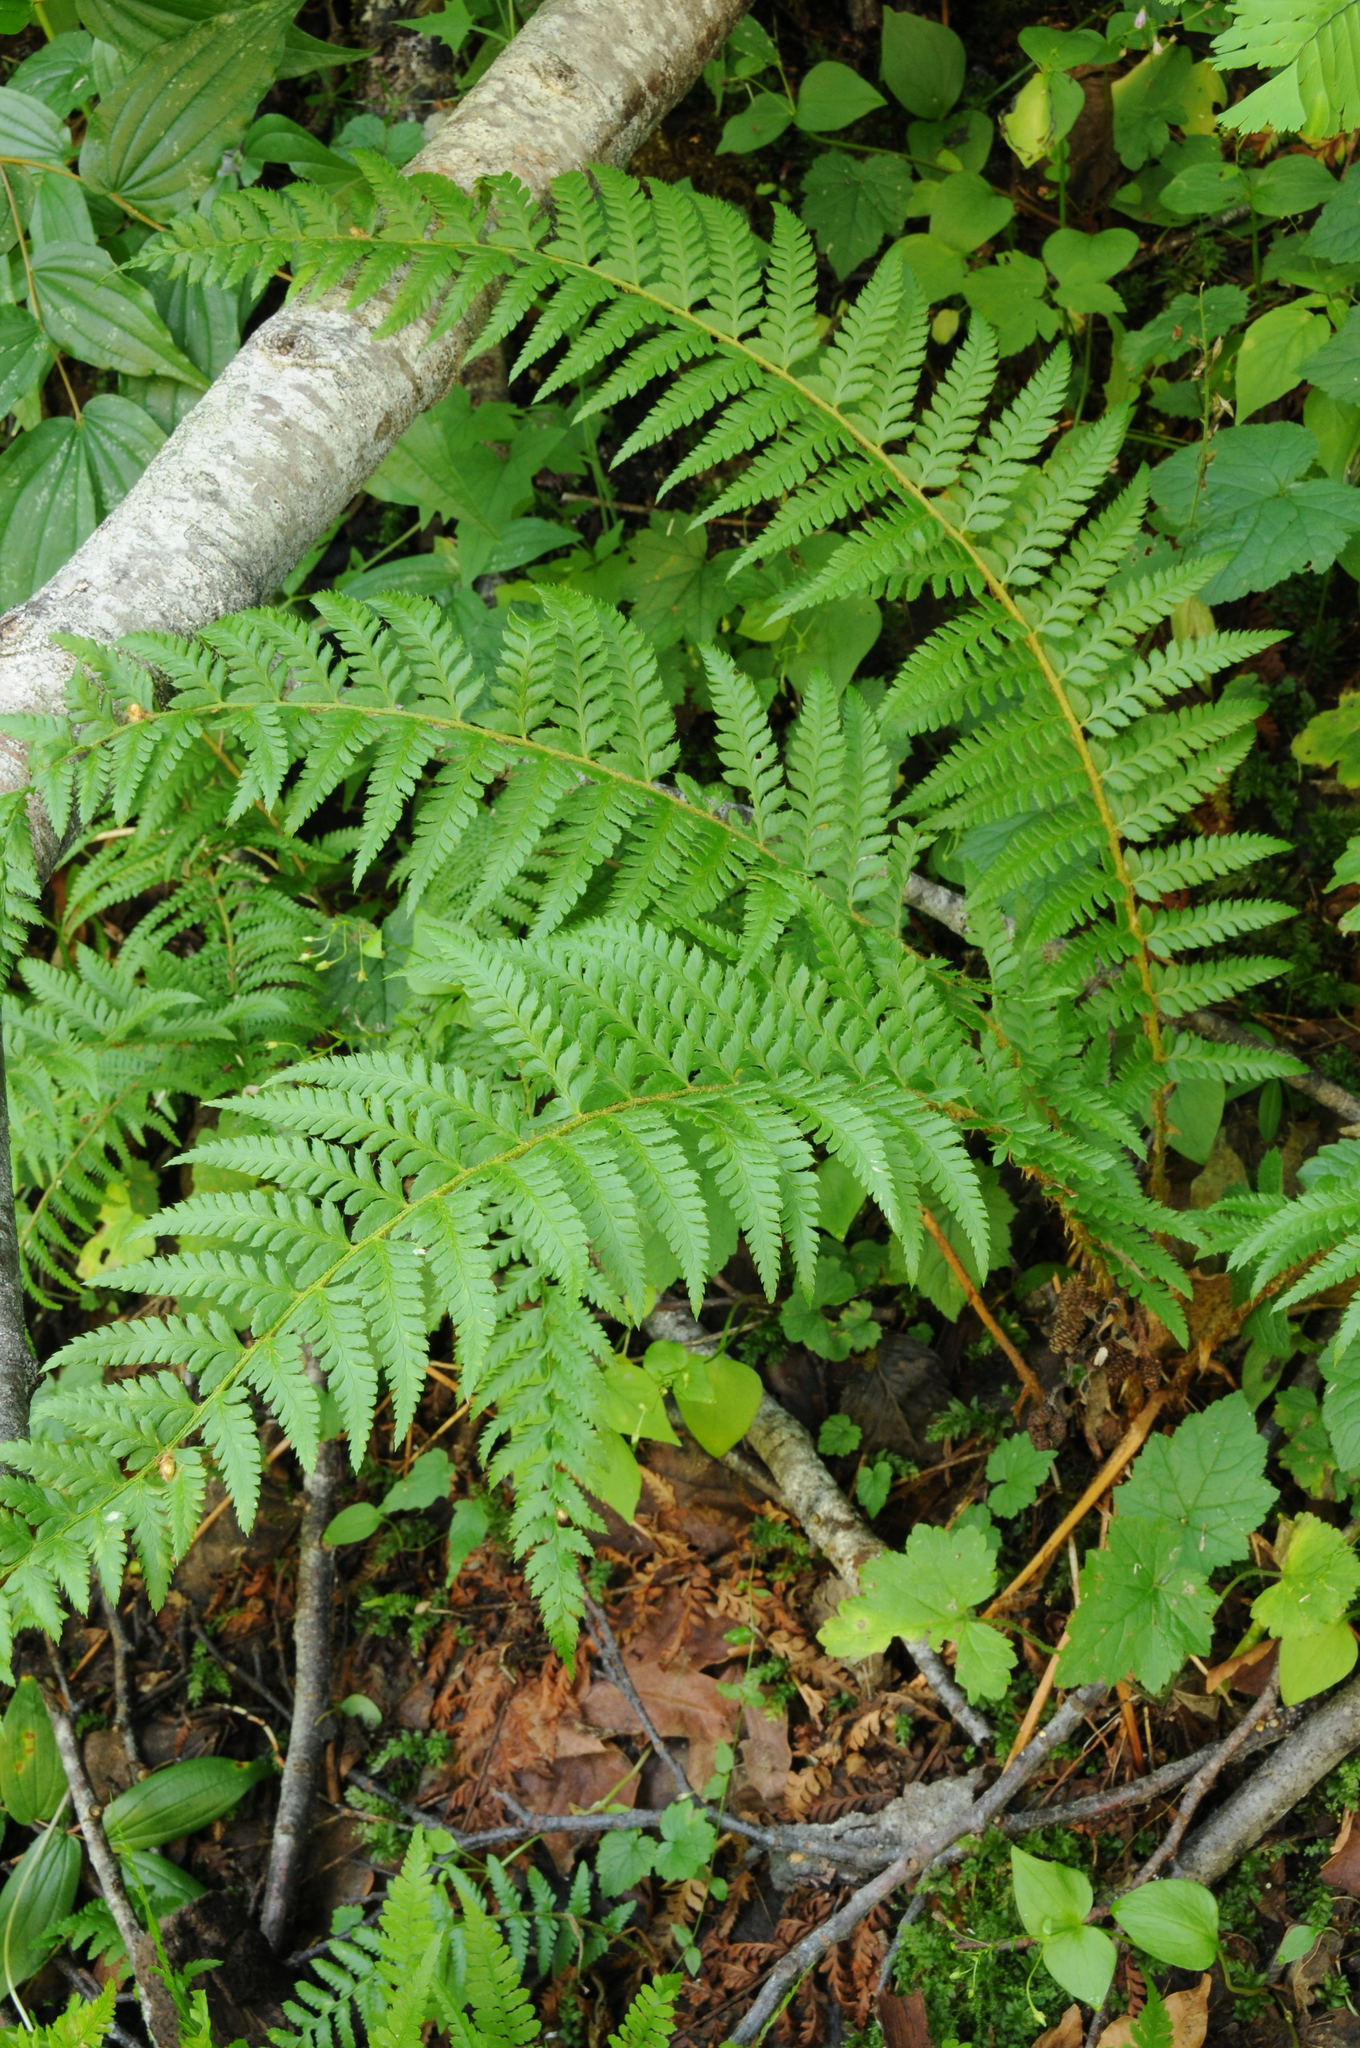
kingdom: Plantae
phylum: Tracheophyta
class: Polypodiopsida
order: Polypodiales
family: Dryopteridaceae
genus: Polystichum
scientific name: Polystichum andersonii
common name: Anderson's holly fern
